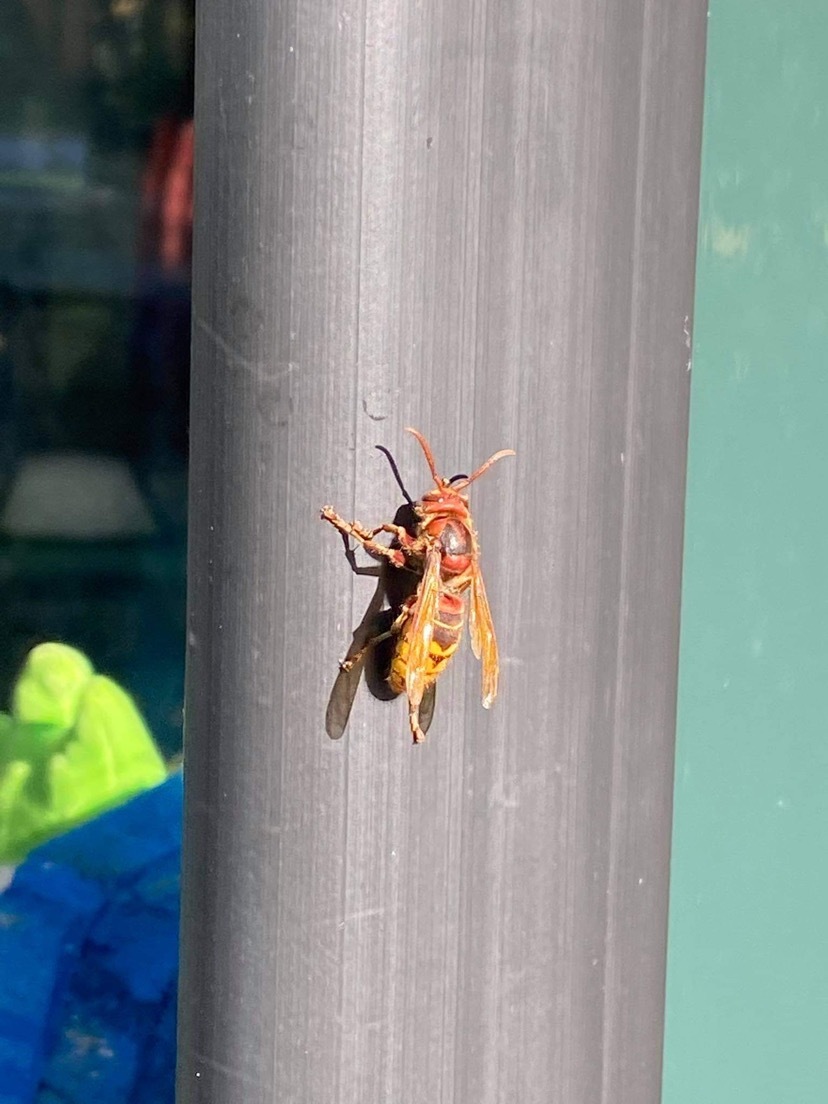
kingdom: Animalia
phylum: Arthropoda
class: Insecta
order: Hymenoptera
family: Vespidae
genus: Vespa
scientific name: Vespa crabro
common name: Hornet
